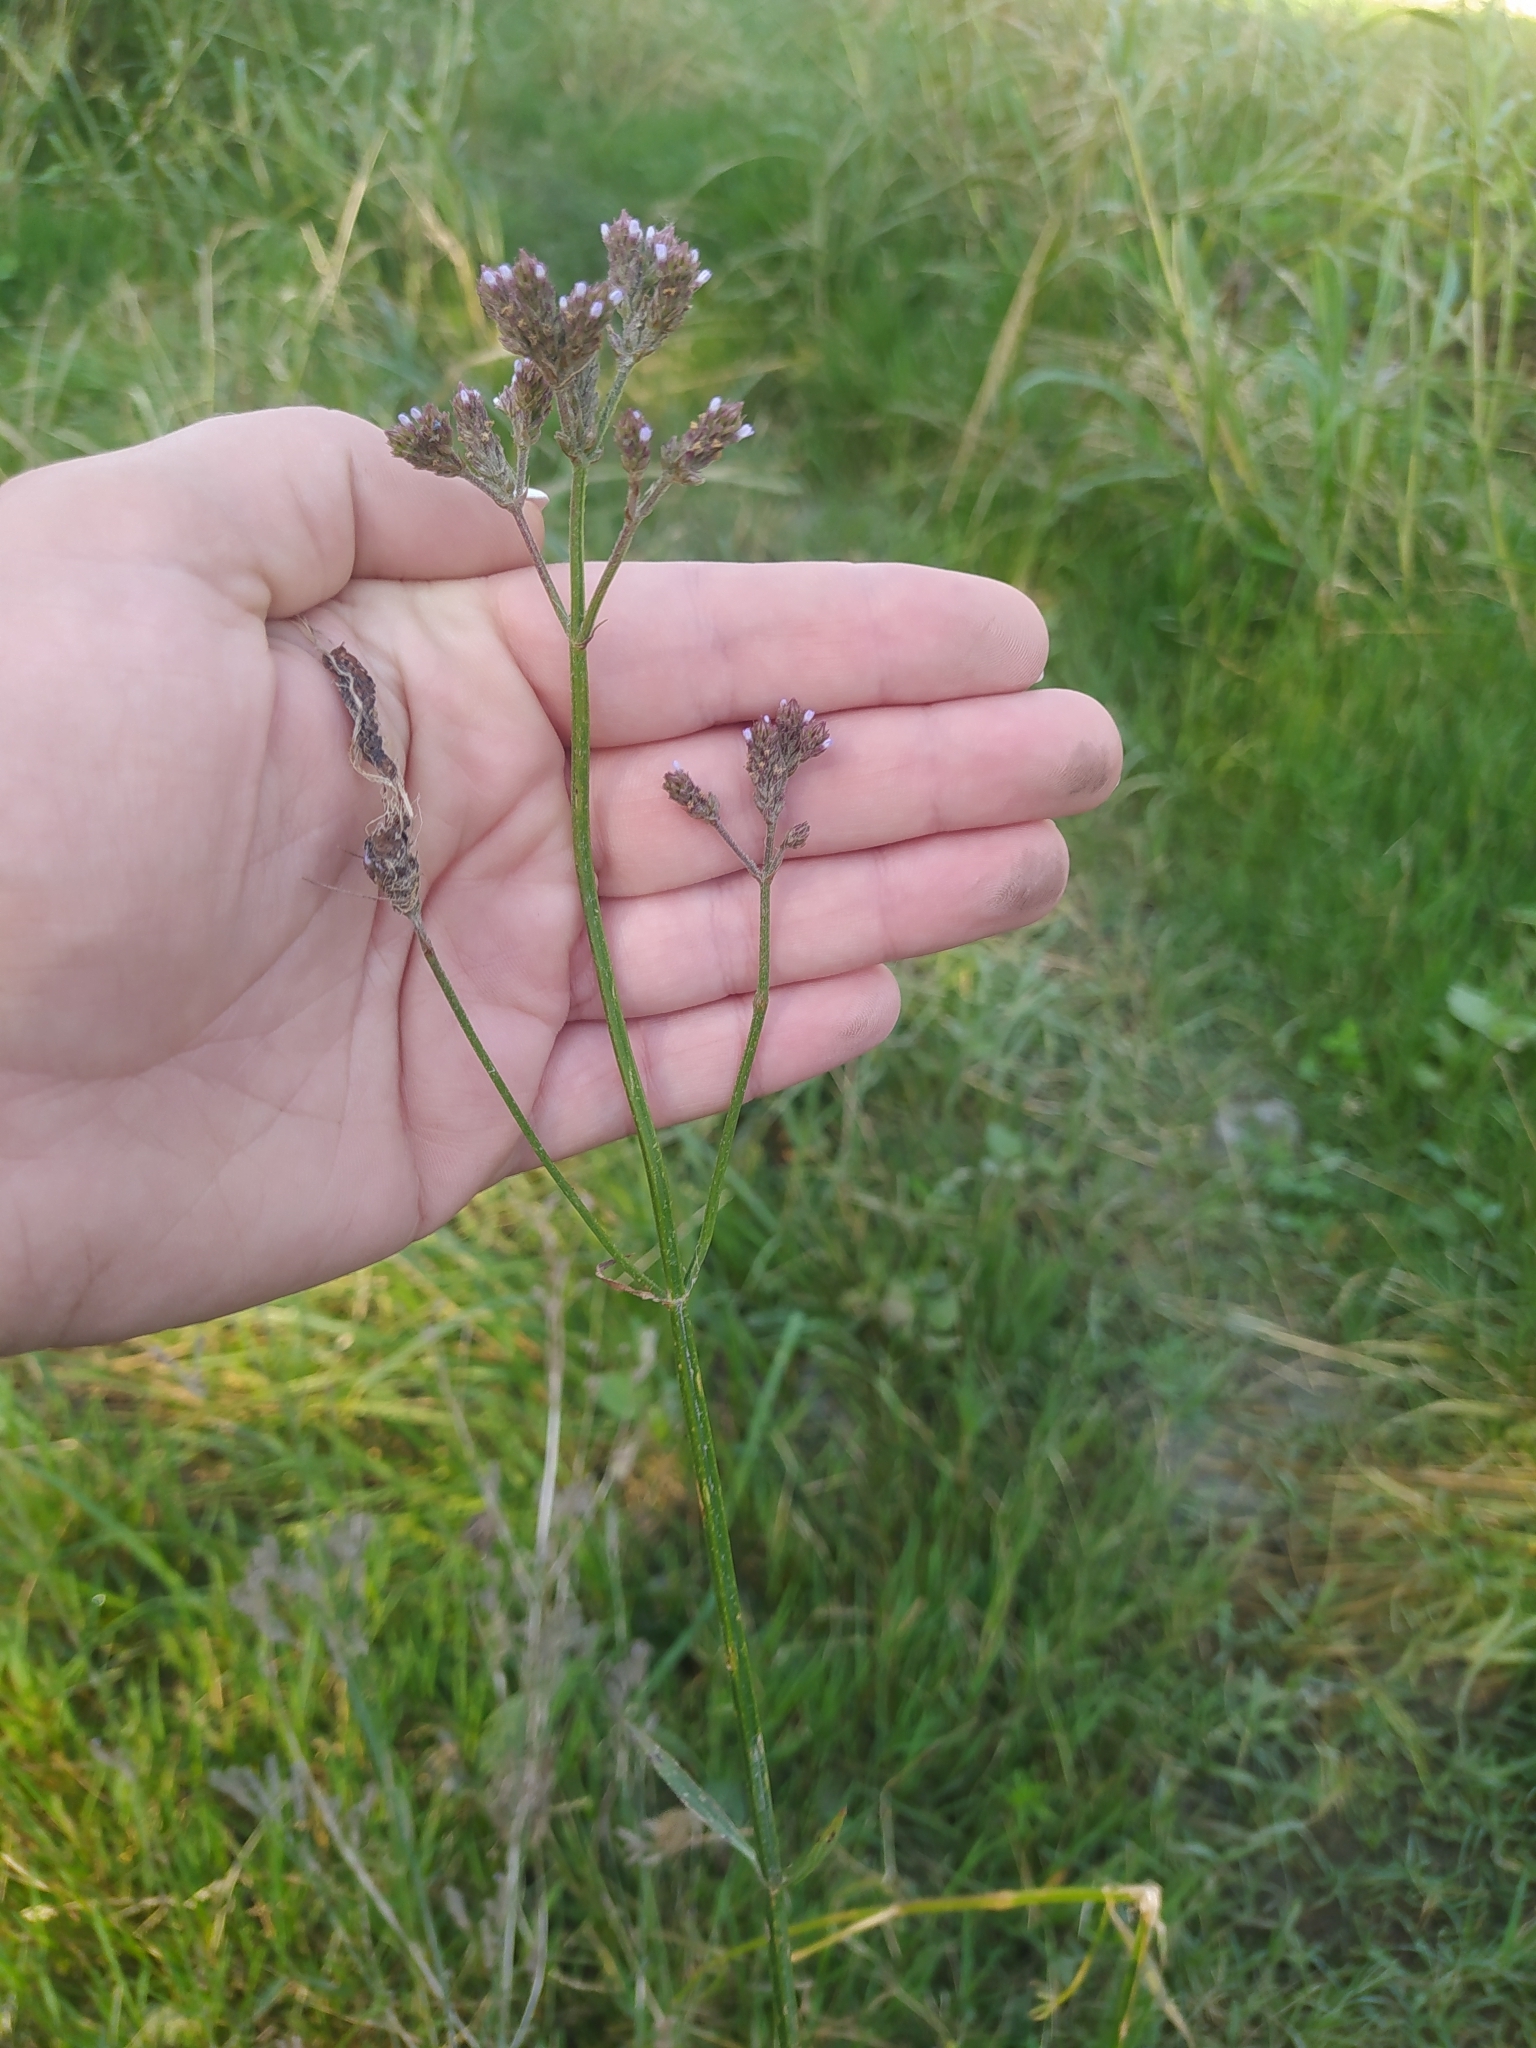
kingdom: Plantae
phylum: Tracheophyta
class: Magnoliopsida
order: Lamiales
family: Verbenaceae
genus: Verbena
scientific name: Verbena brasiliensis
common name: Brazilian vervain
